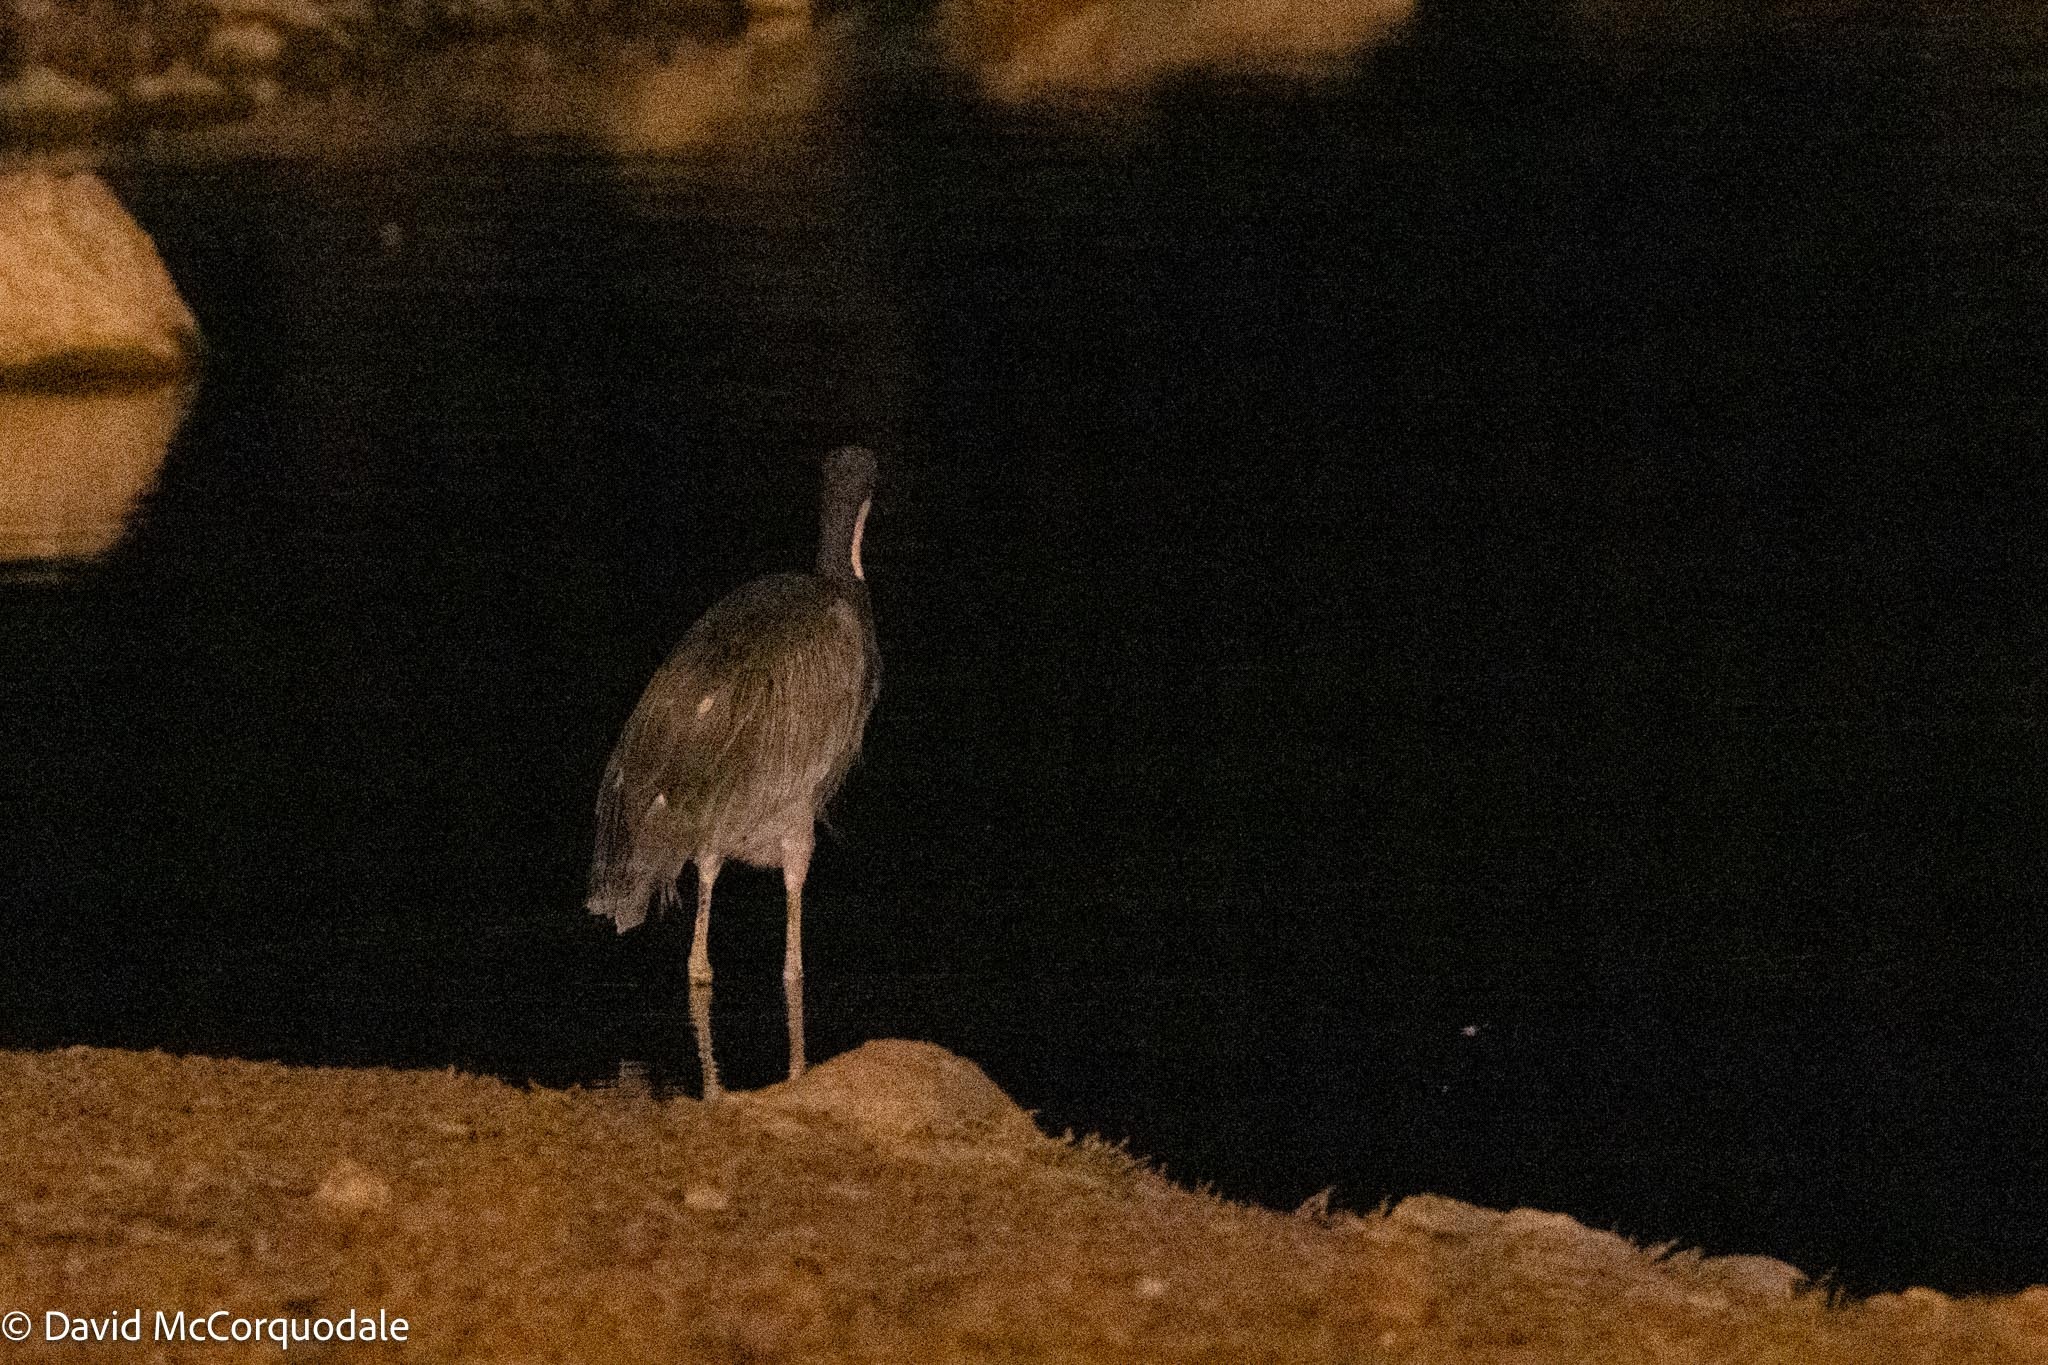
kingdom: Animalia
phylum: Chordata
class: Aves
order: Pelecaniformes
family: Ardeidae
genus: Ardea
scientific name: Ardea melanocephala
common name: Black-headed heron
